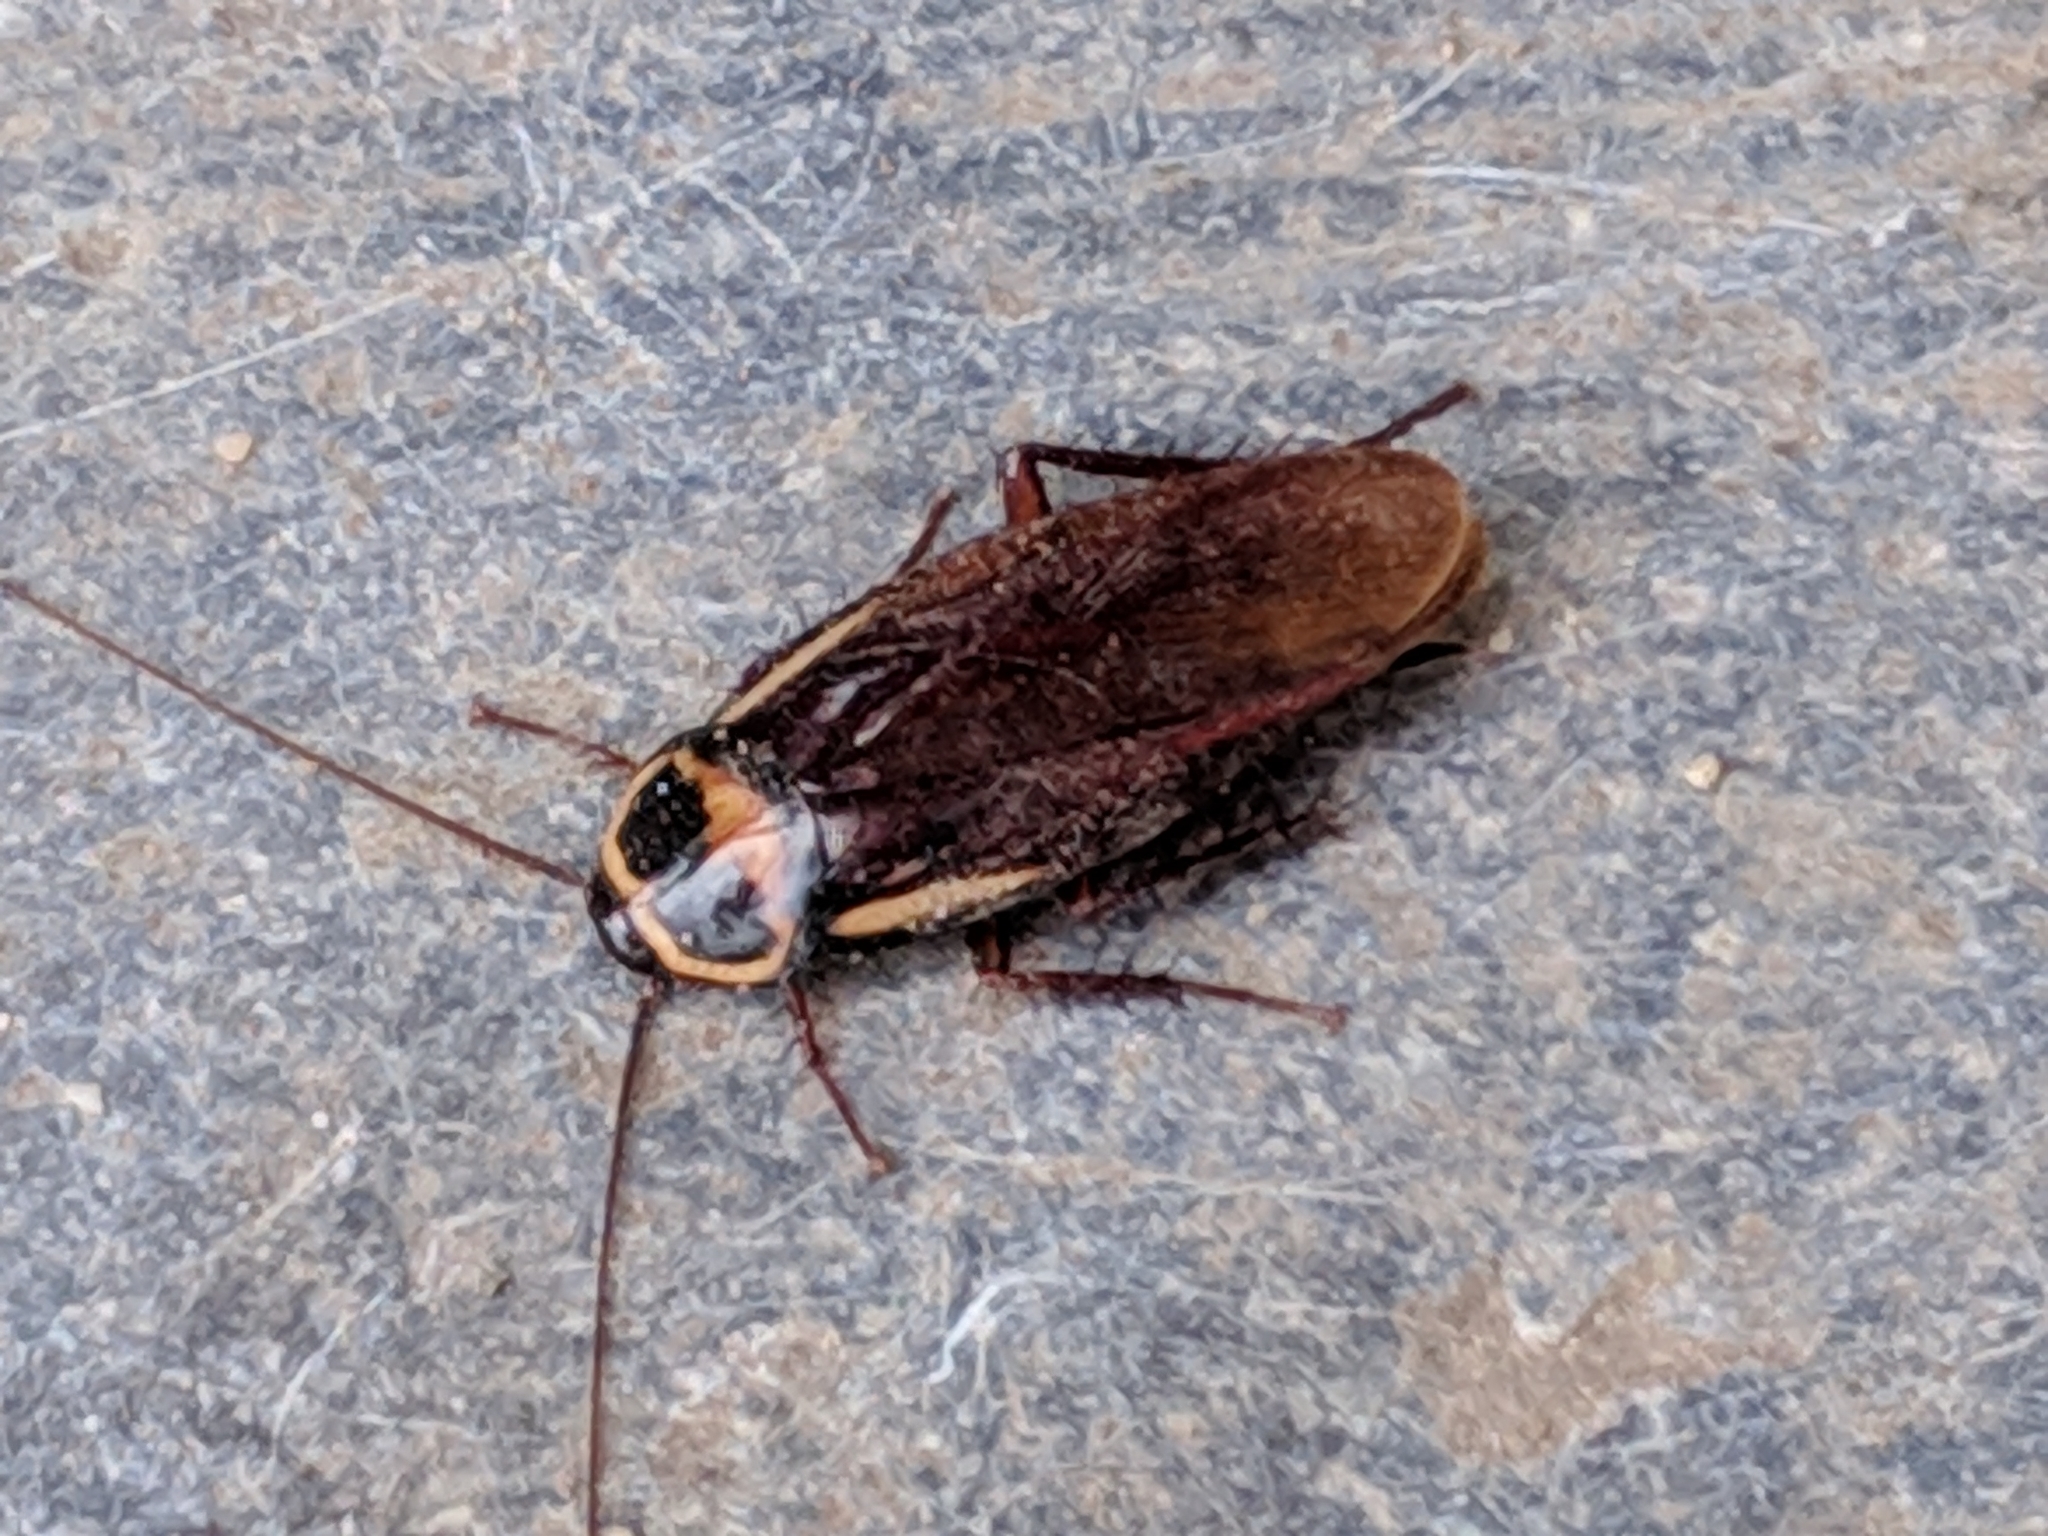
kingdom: Animalia
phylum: Arthropoda
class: Insecta
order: Blattodea
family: Blattidae
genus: Periplaneta
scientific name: Periplaneta australasiae
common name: Australian cockroach
